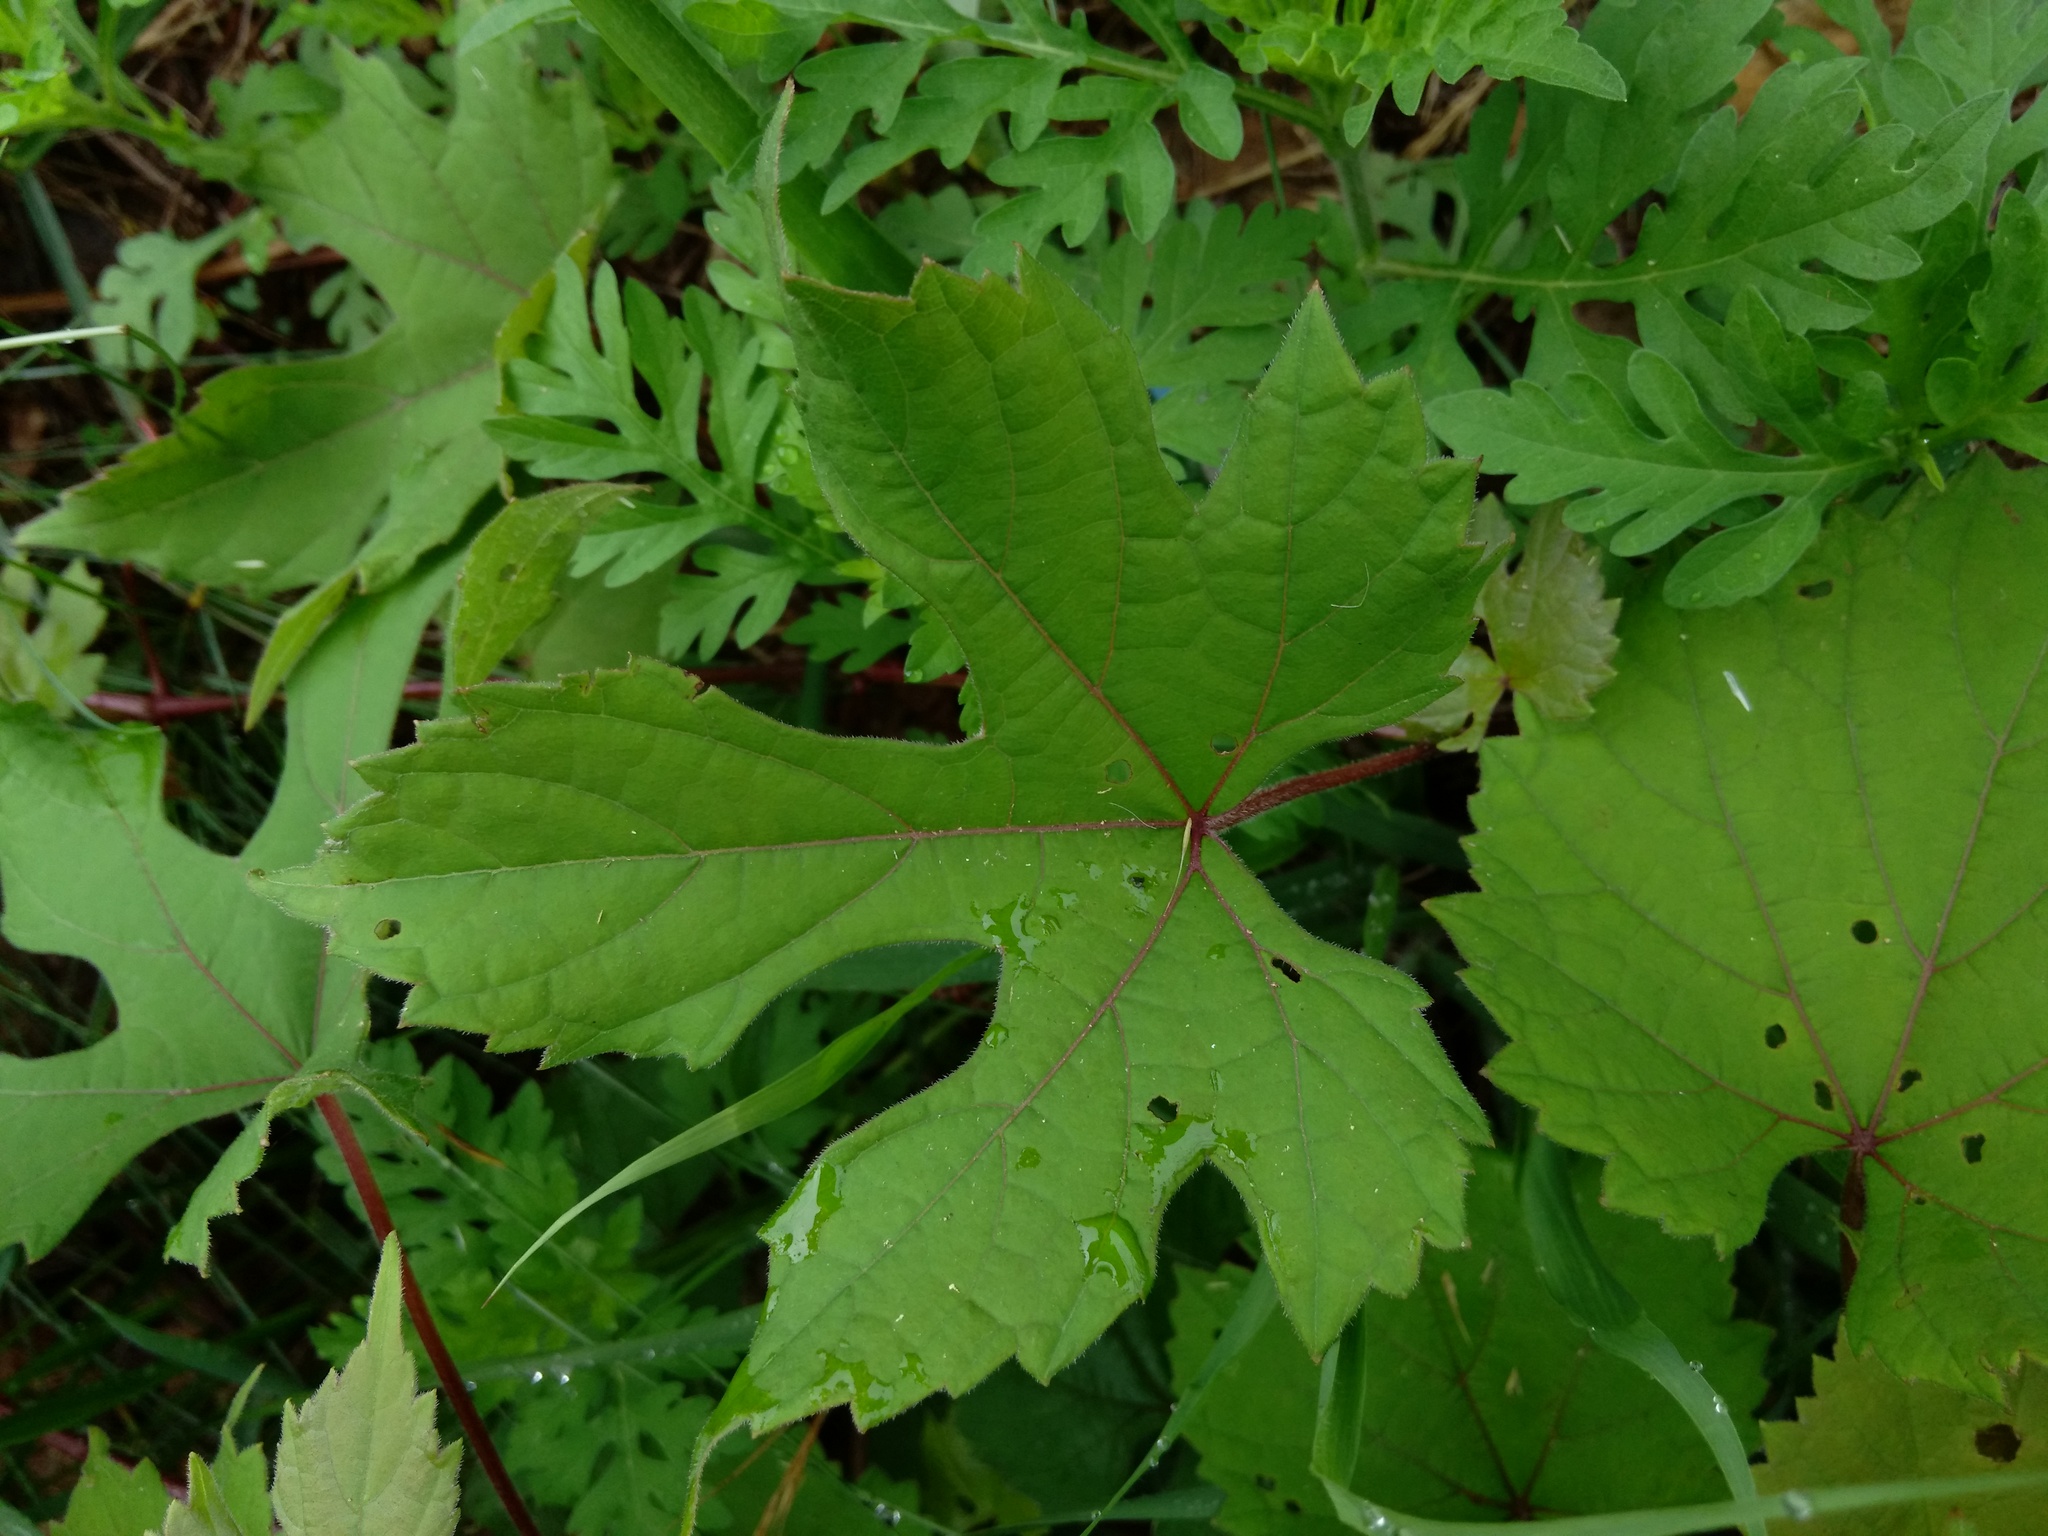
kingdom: Plantae
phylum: Tracheophyta
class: Magnoliopsida
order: Vitales
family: Vitaceae
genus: Vitis
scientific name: Vitis aestivalis
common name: Pigeon grape
